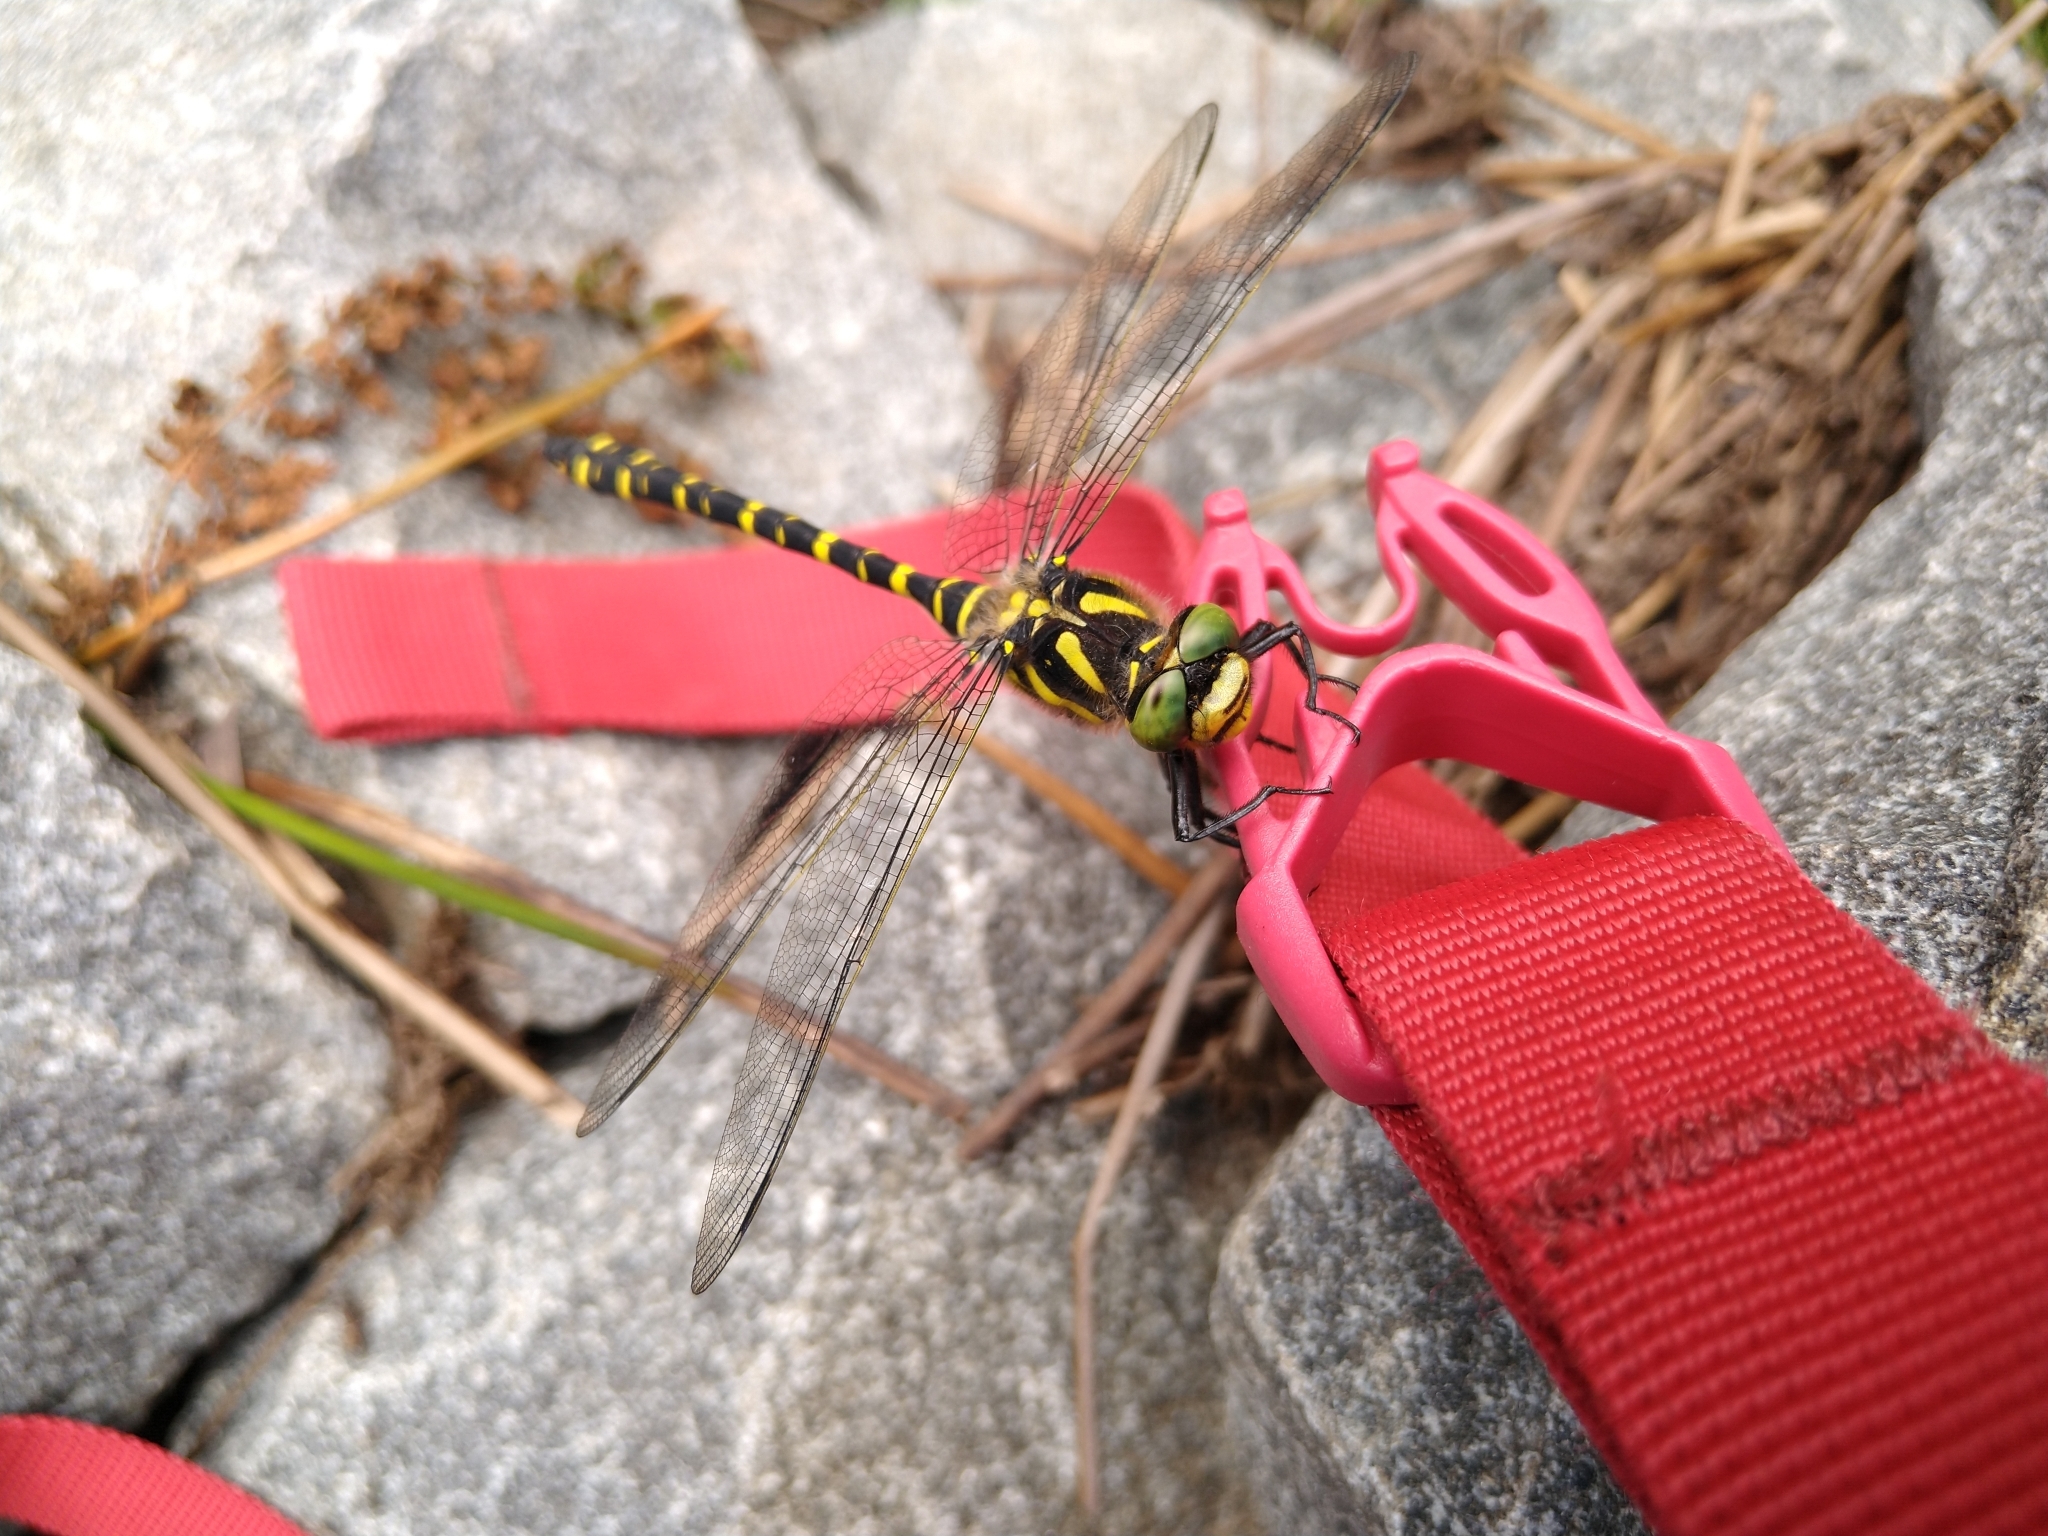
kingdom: Animalia
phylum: Arthropoda
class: Insecta
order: Odonata
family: Cordulegastridae
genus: Cordulegaster
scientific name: Cordulegaster boltonii
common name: Golden-ringed dragonfly
